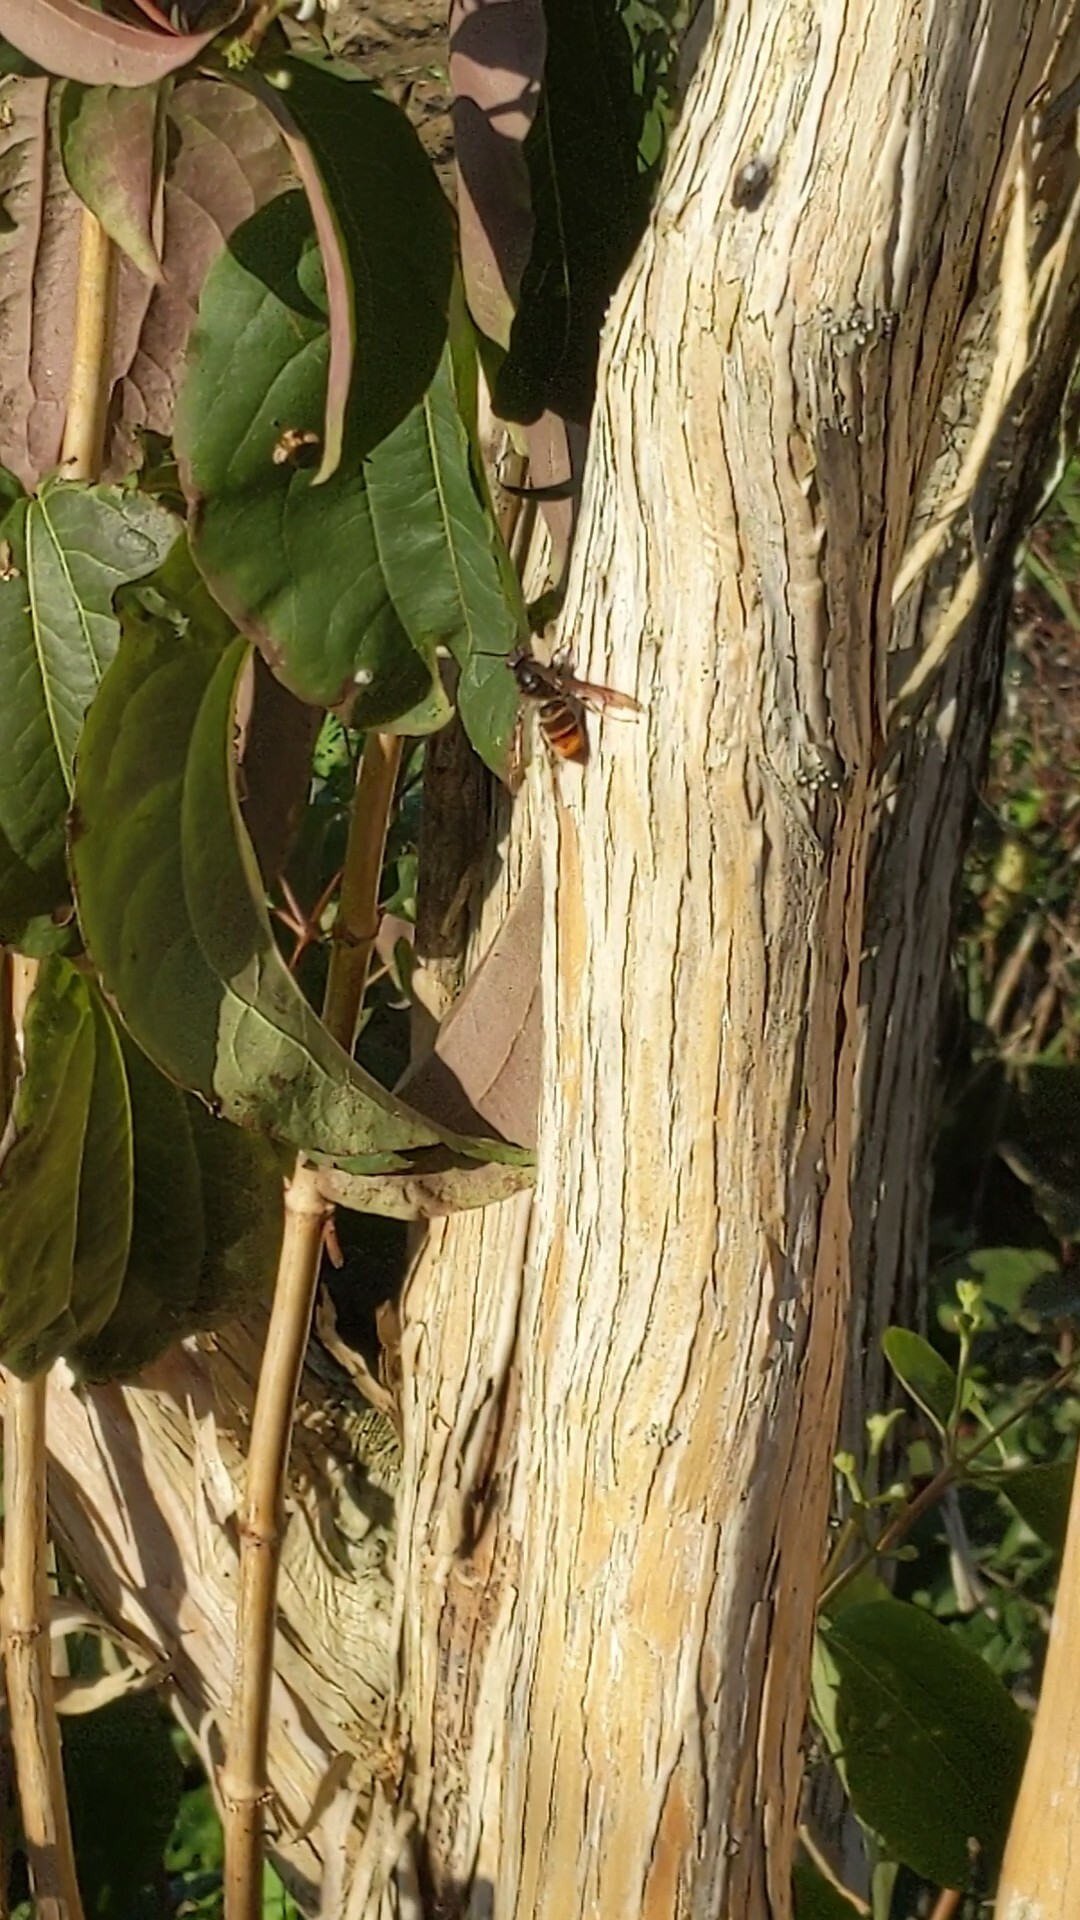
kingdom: Animalia
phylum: Arthropoda
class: Insecta
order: Hymenoptera
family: Vespidae
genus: Vespa
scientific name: Vespa velutina
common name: Asian hornet
